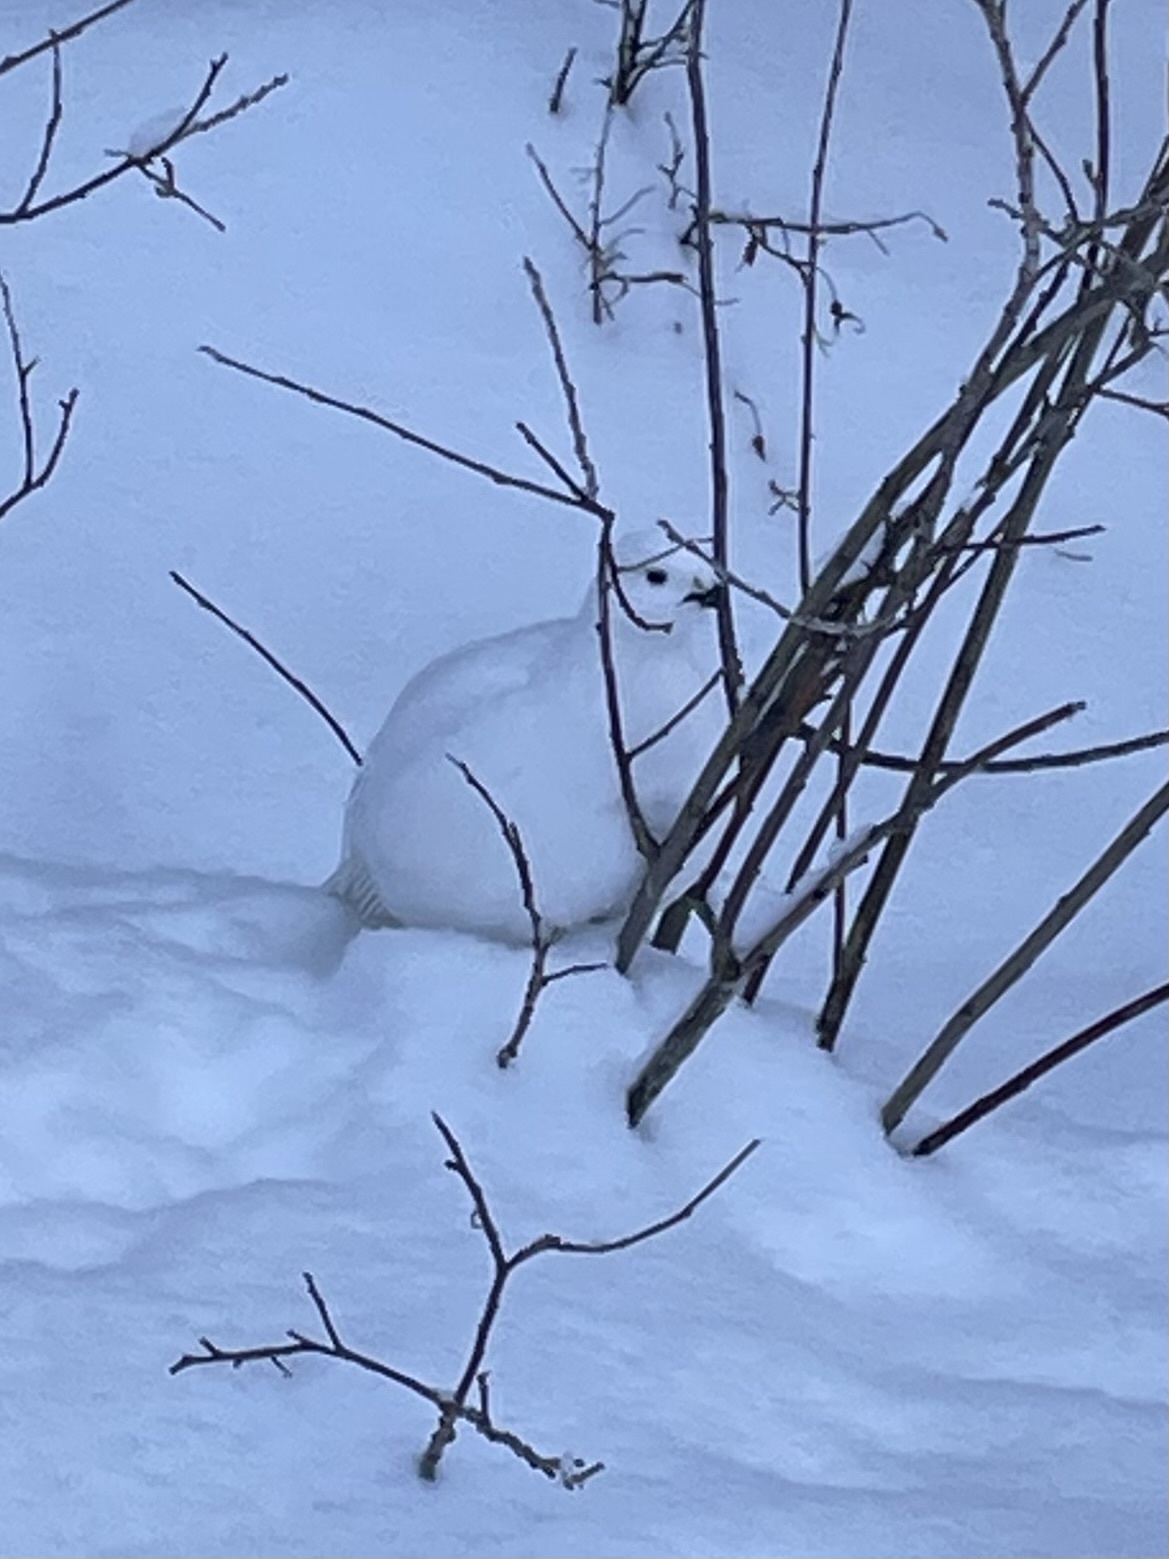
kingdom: Animalia
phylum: Chordata
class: Aves
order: Galliformes
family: Phasianidae
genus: Lagopus
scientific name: Lagopus lagopus
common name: Willow ptarmigan
